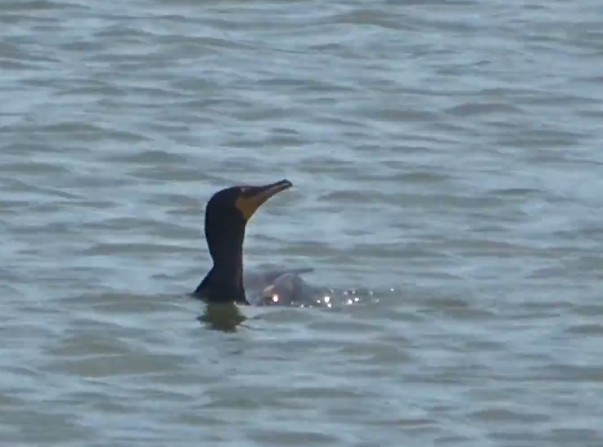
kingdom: Animalia
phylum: Chordata
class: Aves
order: Suliformes
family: Phalacrocoracidae
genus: Phalacrocorax
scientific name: Phalacrocorax auritus
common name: Double-crested cormorant
